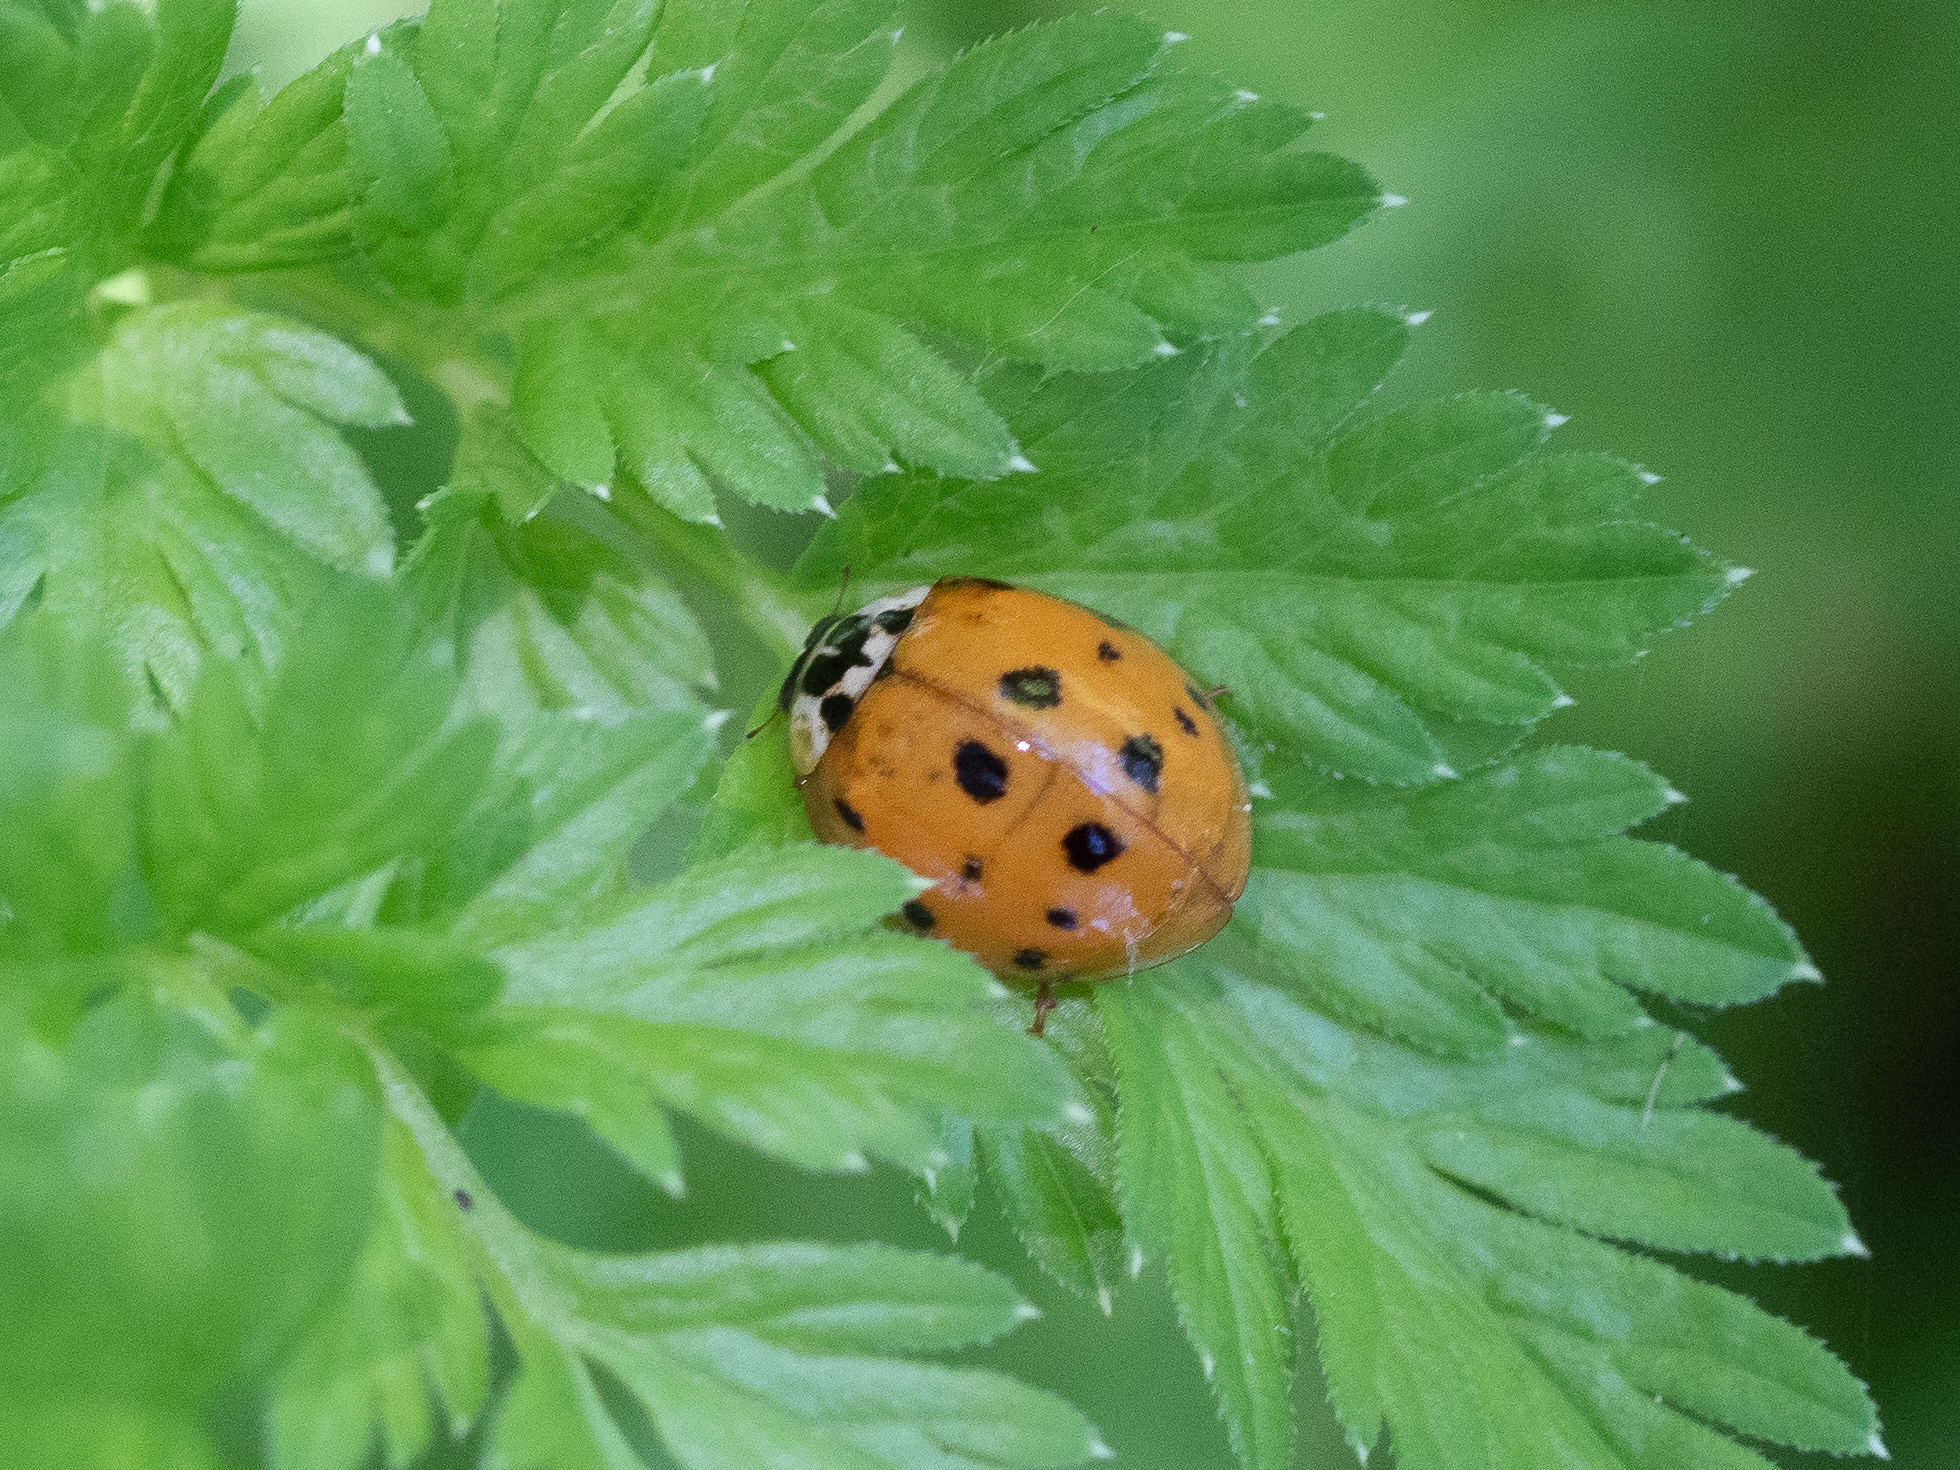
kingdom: Animalia
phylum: Arthropoda
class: Insecta
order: Coleoptera
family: Coccinellidae
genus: Harmonia
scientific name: Harmonia axyridis
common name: Harlequin ladybird
